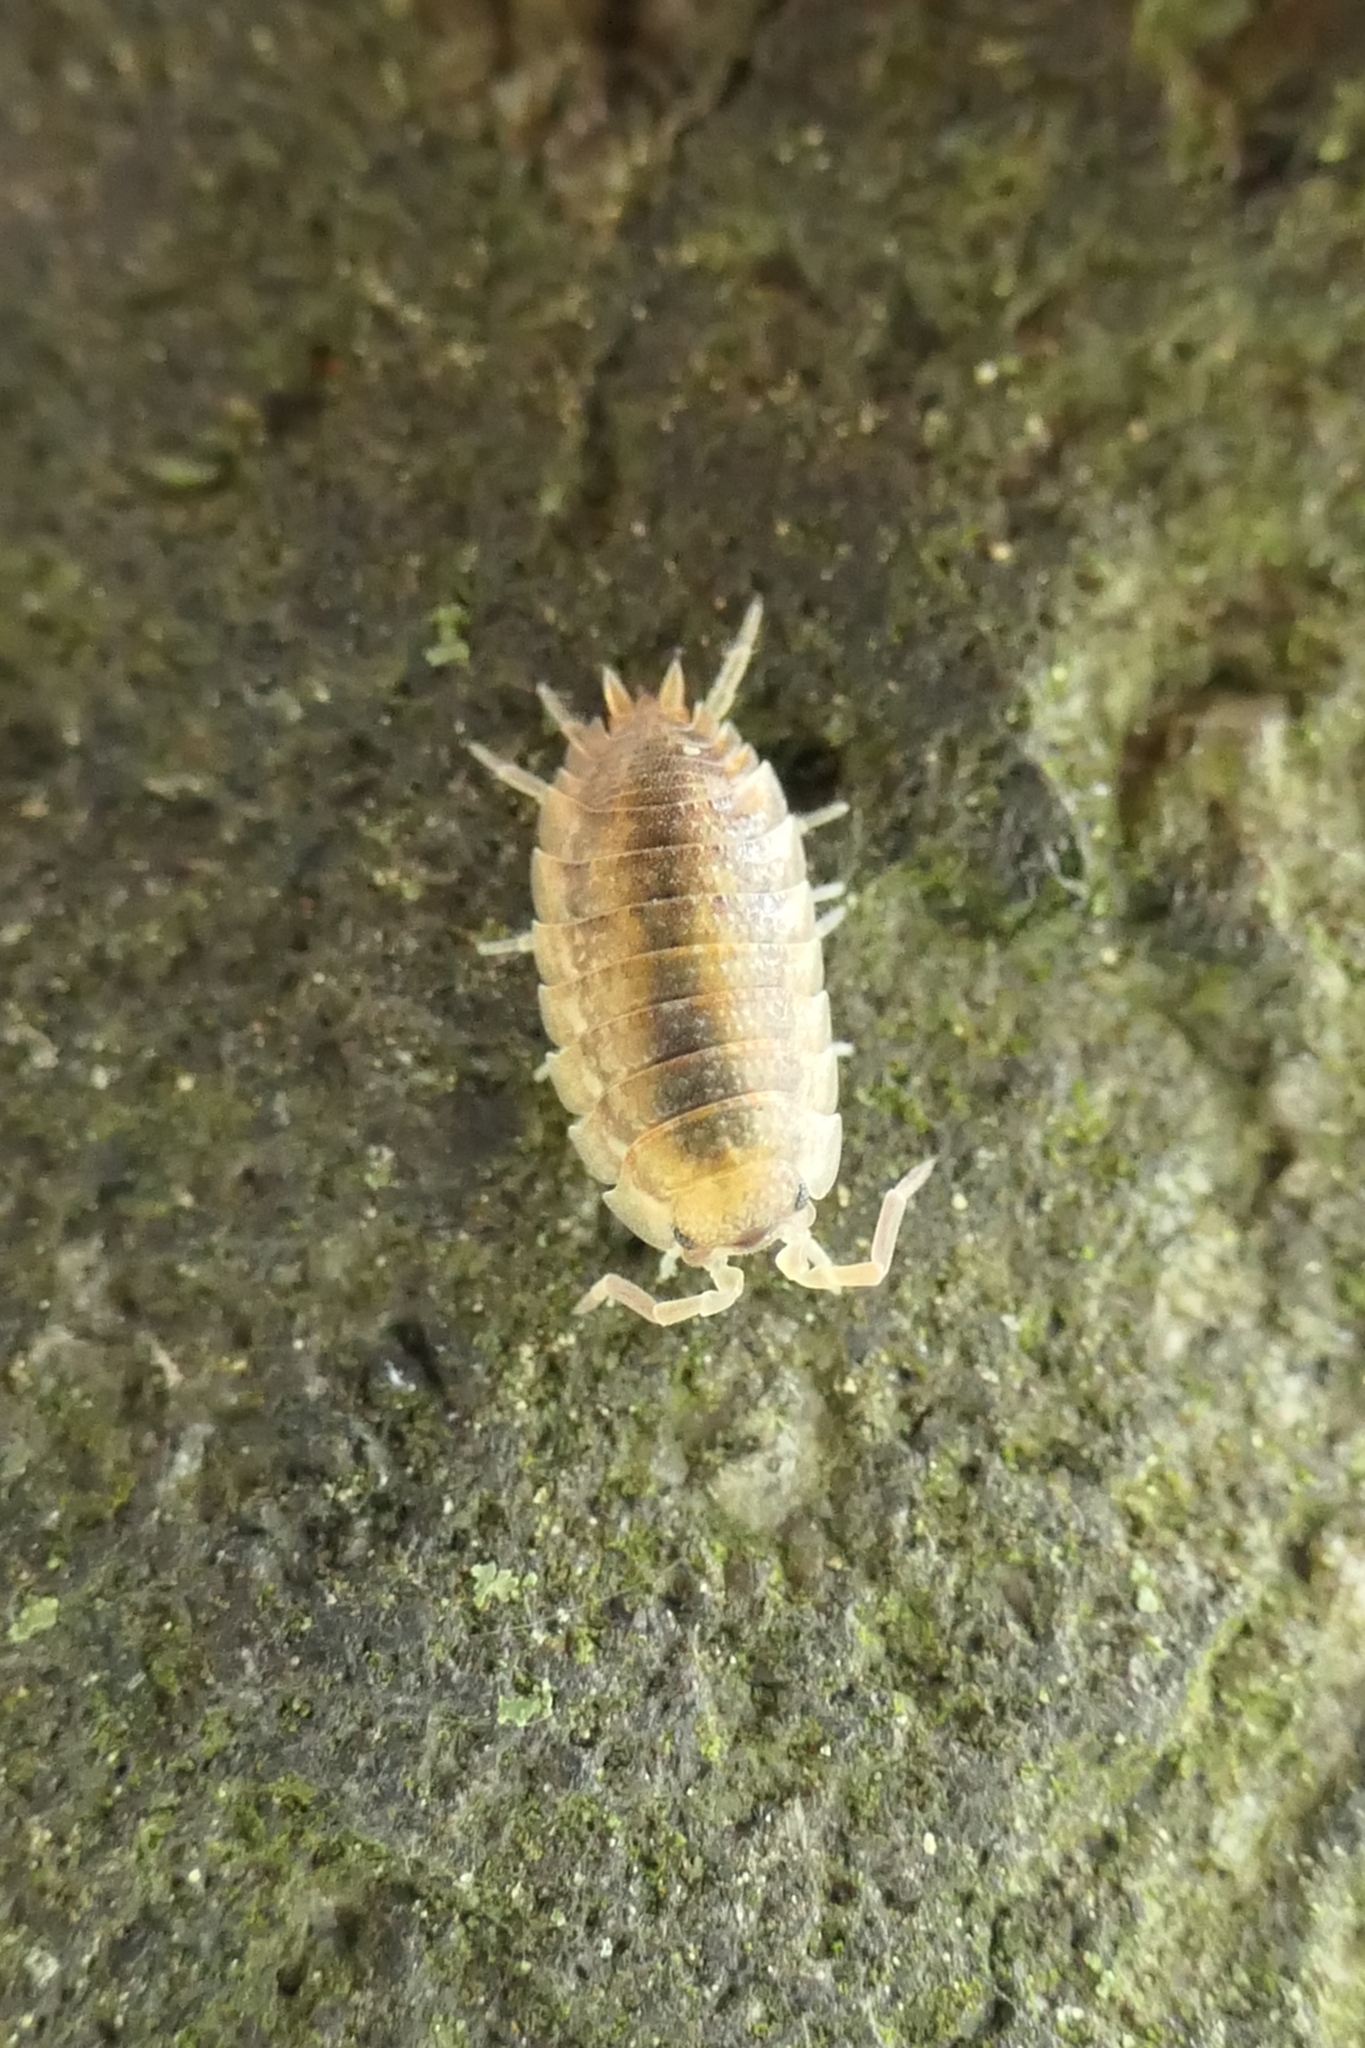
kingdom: Animalia
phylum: Arthropoda
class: Malacostraca
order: Isopoda
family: Porcellionidae
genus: Porcellio
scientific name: Porcellio scaber
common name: Common rough woodlouse
